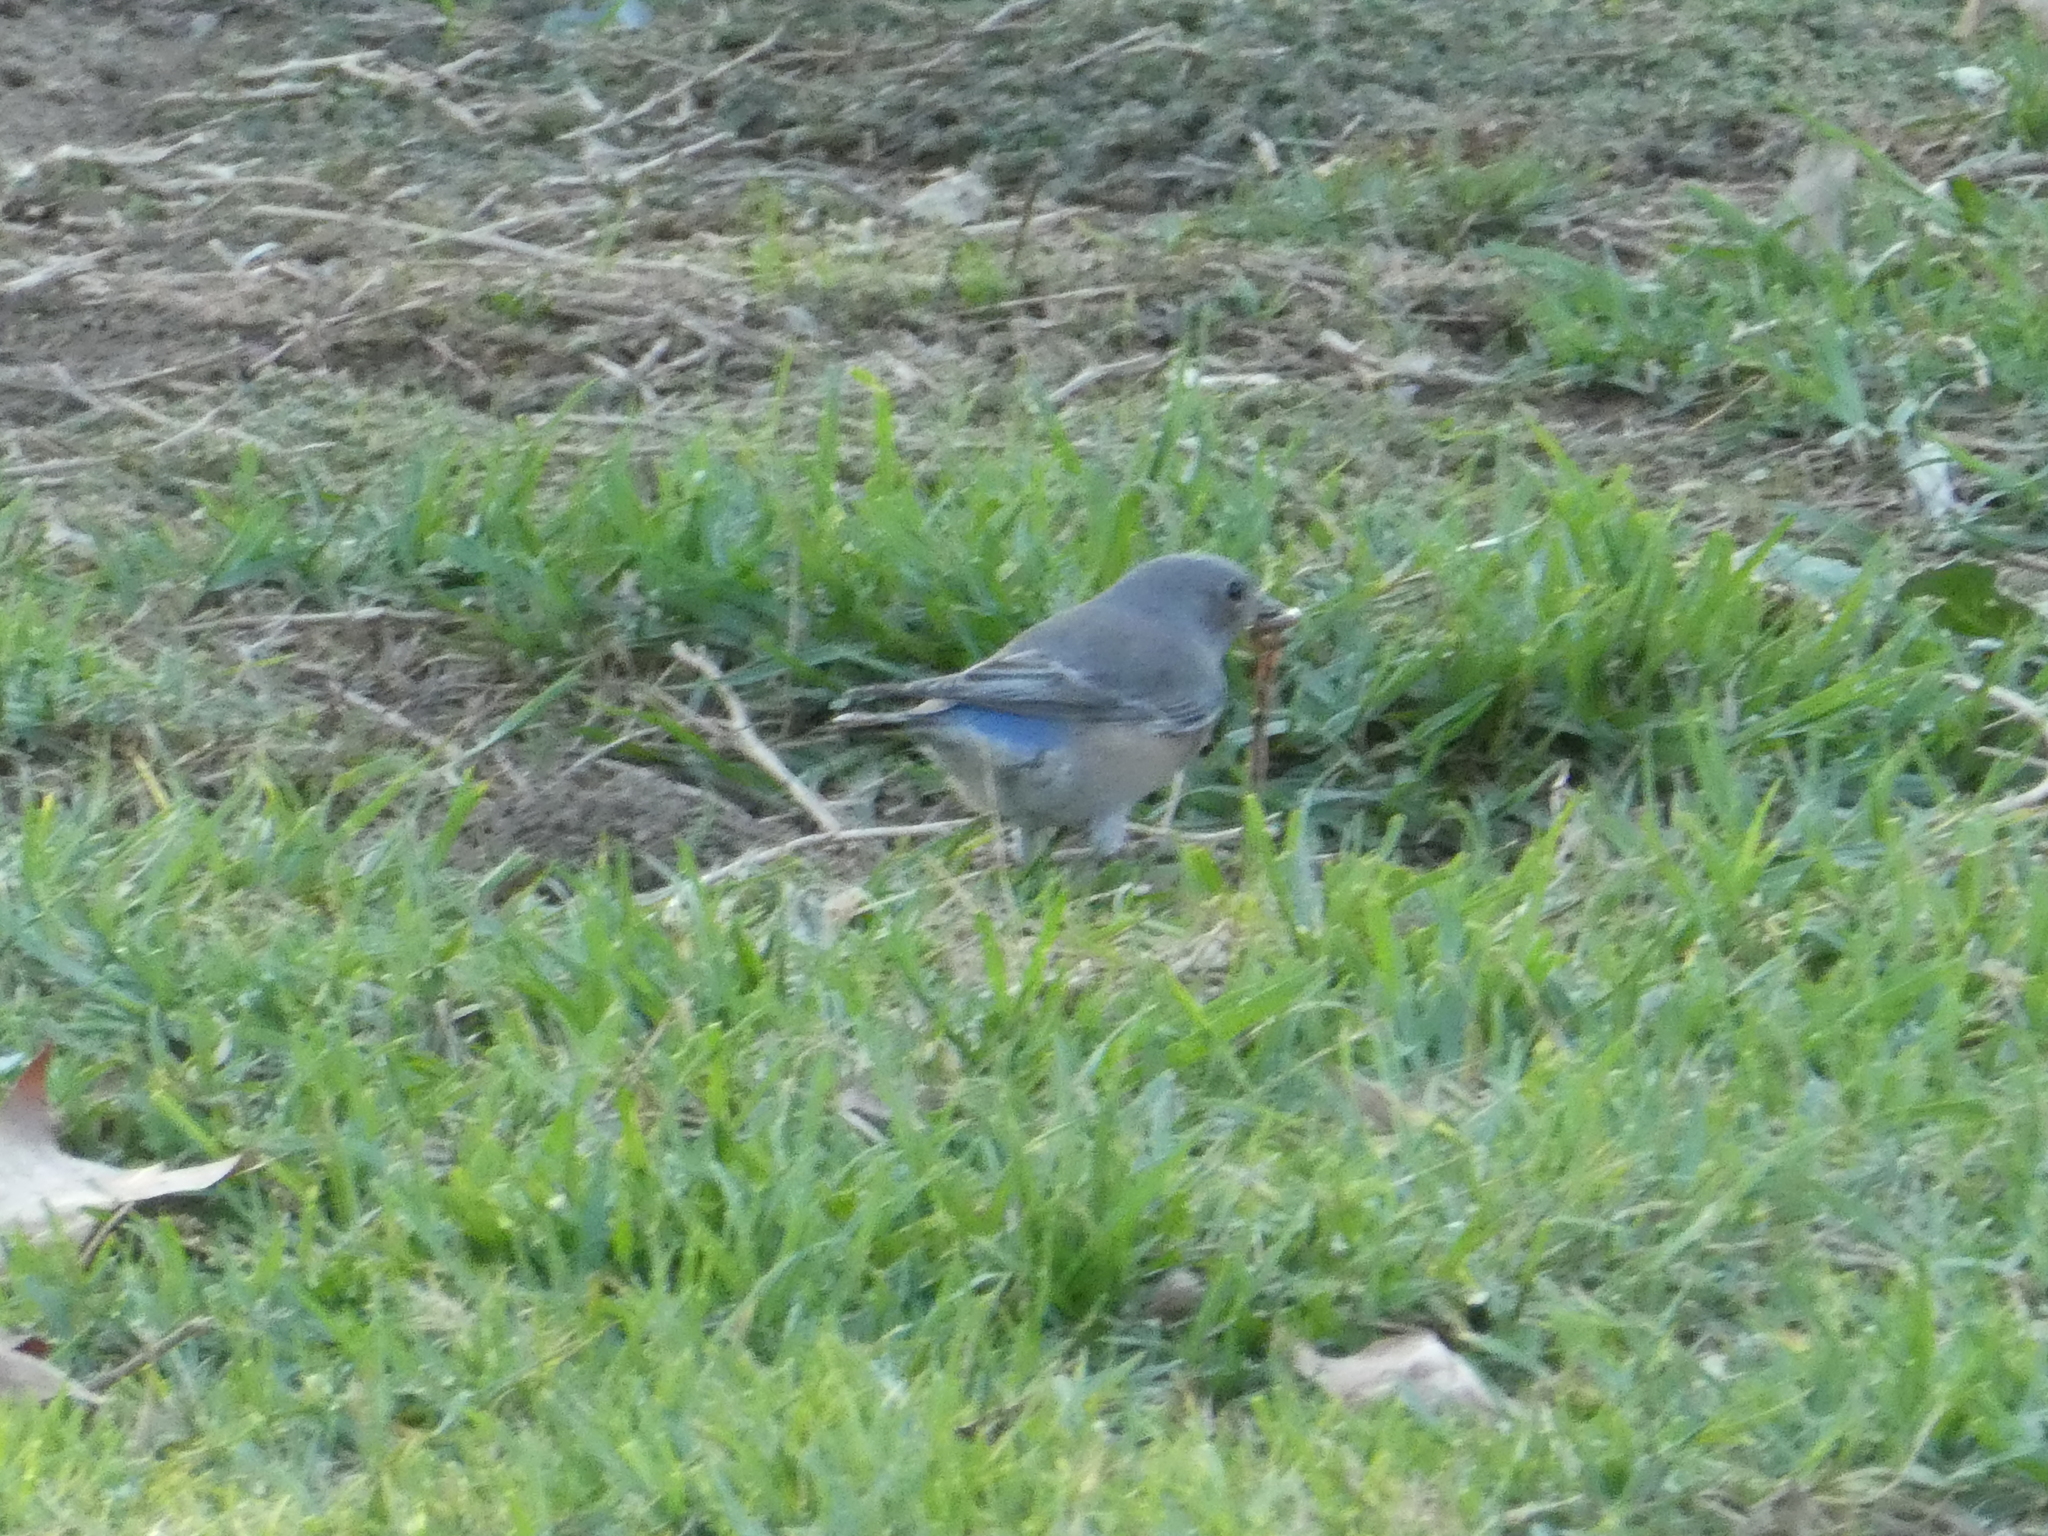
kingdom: Animalia
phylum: Chordata
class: Aves
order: Passeriformes
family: Turdidae
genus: Sialia
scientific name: Sialia mexicana
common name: Western bluebird
